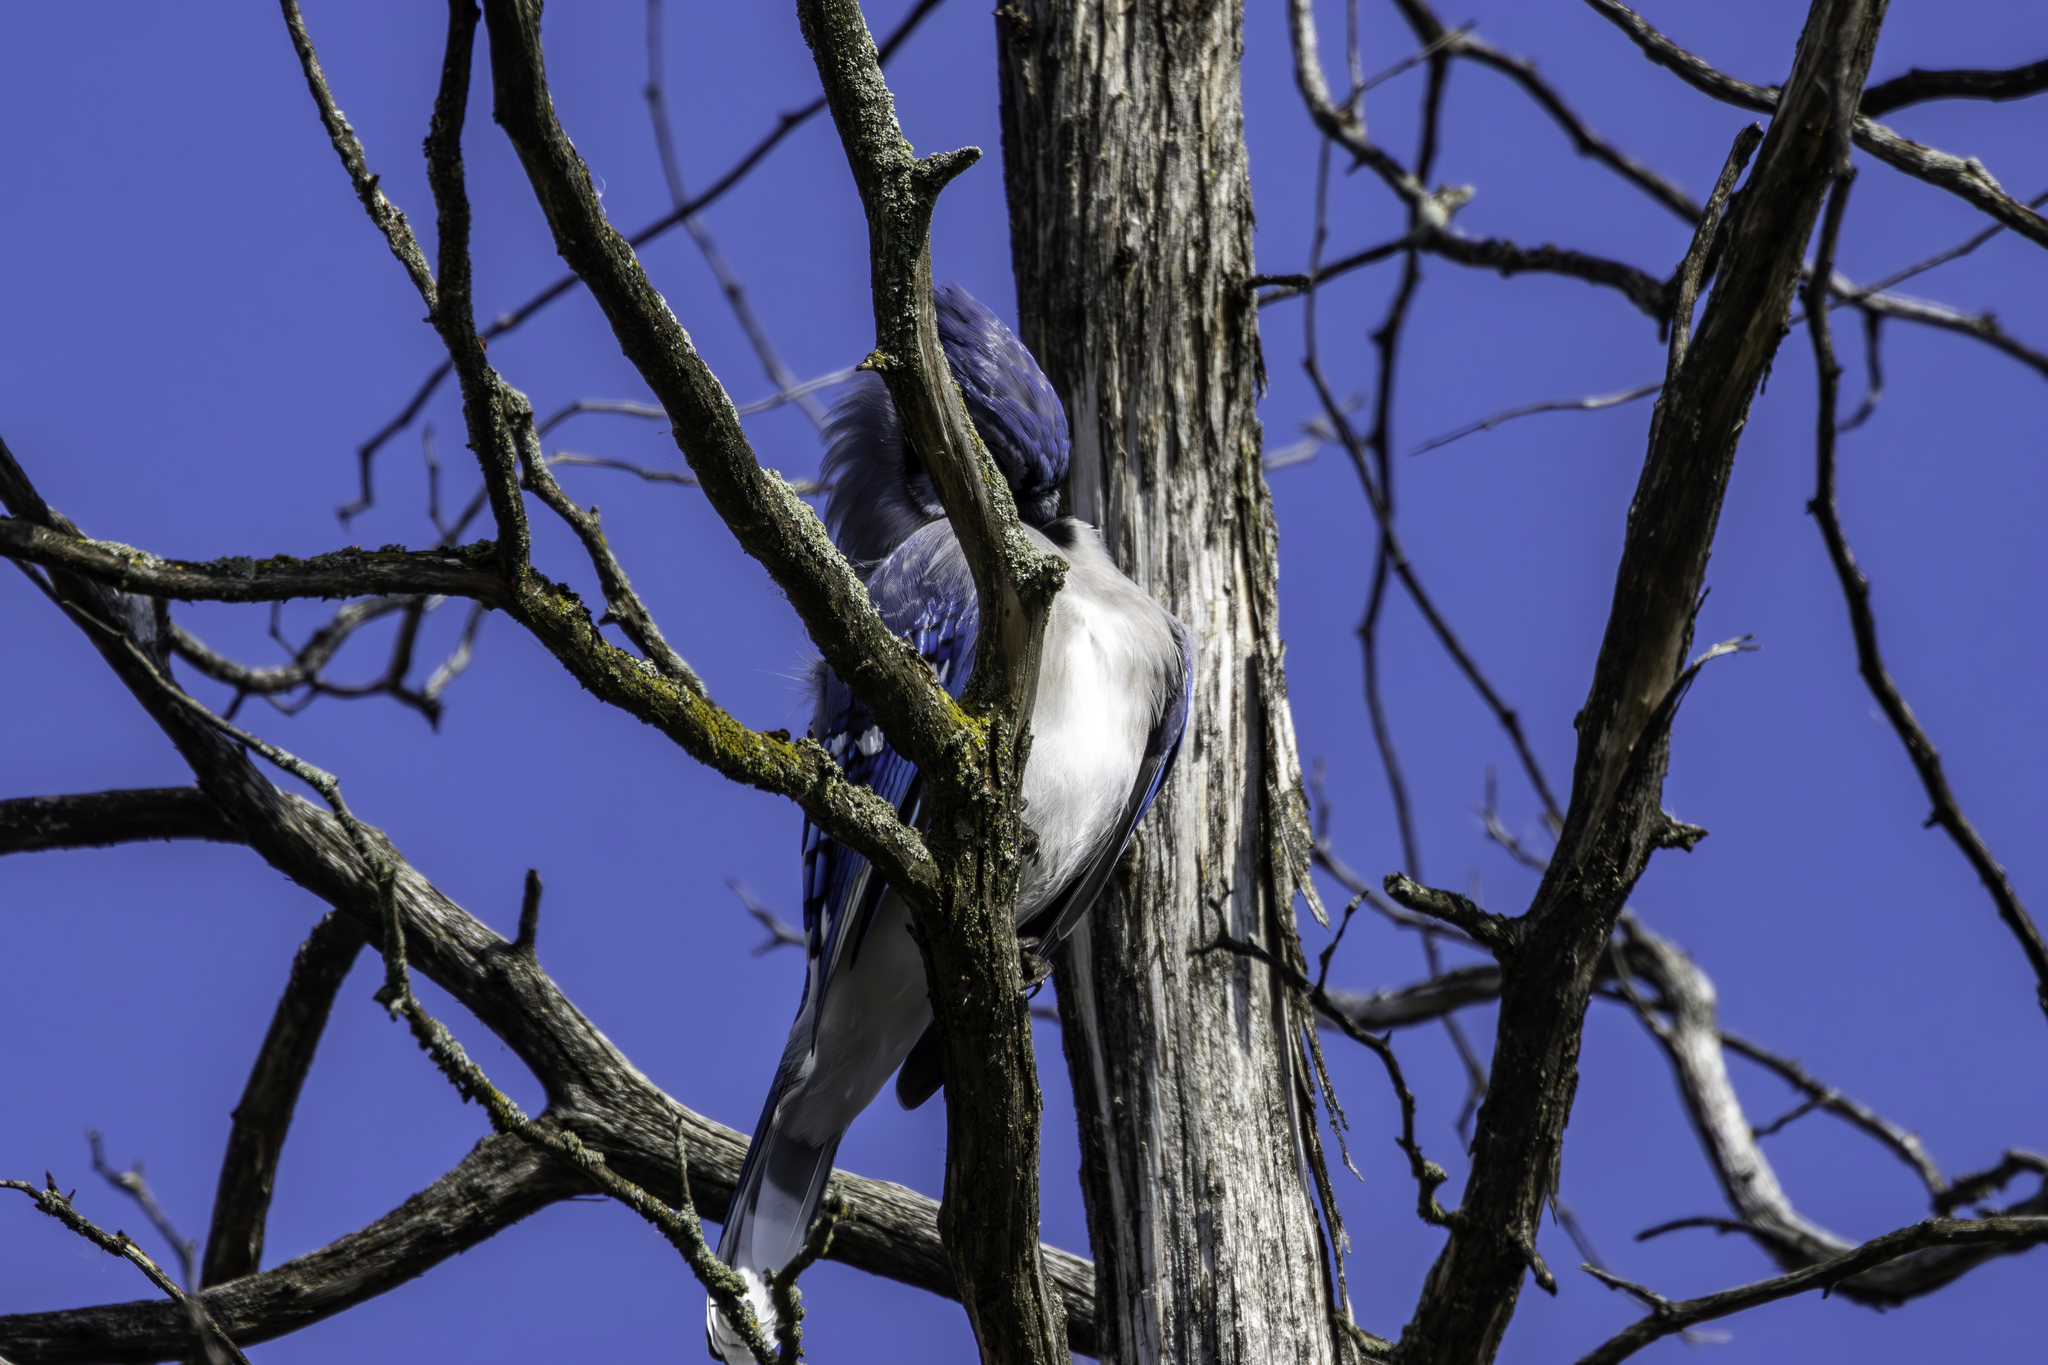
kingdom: Animalia
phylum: Chordata
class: Aves
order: Passeriformes
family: Corvidae
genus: Cyanocitta
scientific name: Cyanocitta cristata
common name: Blue jay
